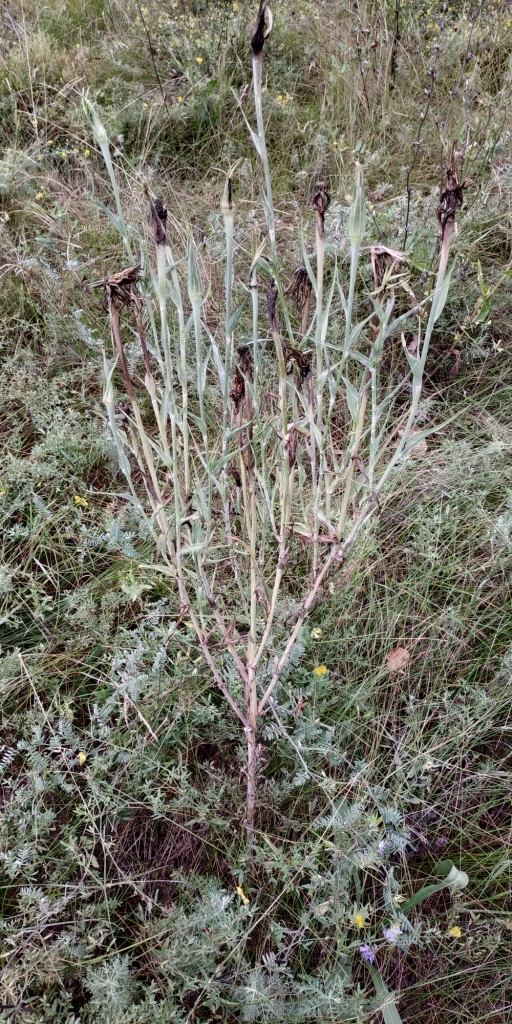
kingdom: Plantae
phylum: Tracheophyta
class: Magnoliopsida
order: Asterales
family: Asteraceae
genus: Tragopogon
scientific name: Tragopogon orientalis
